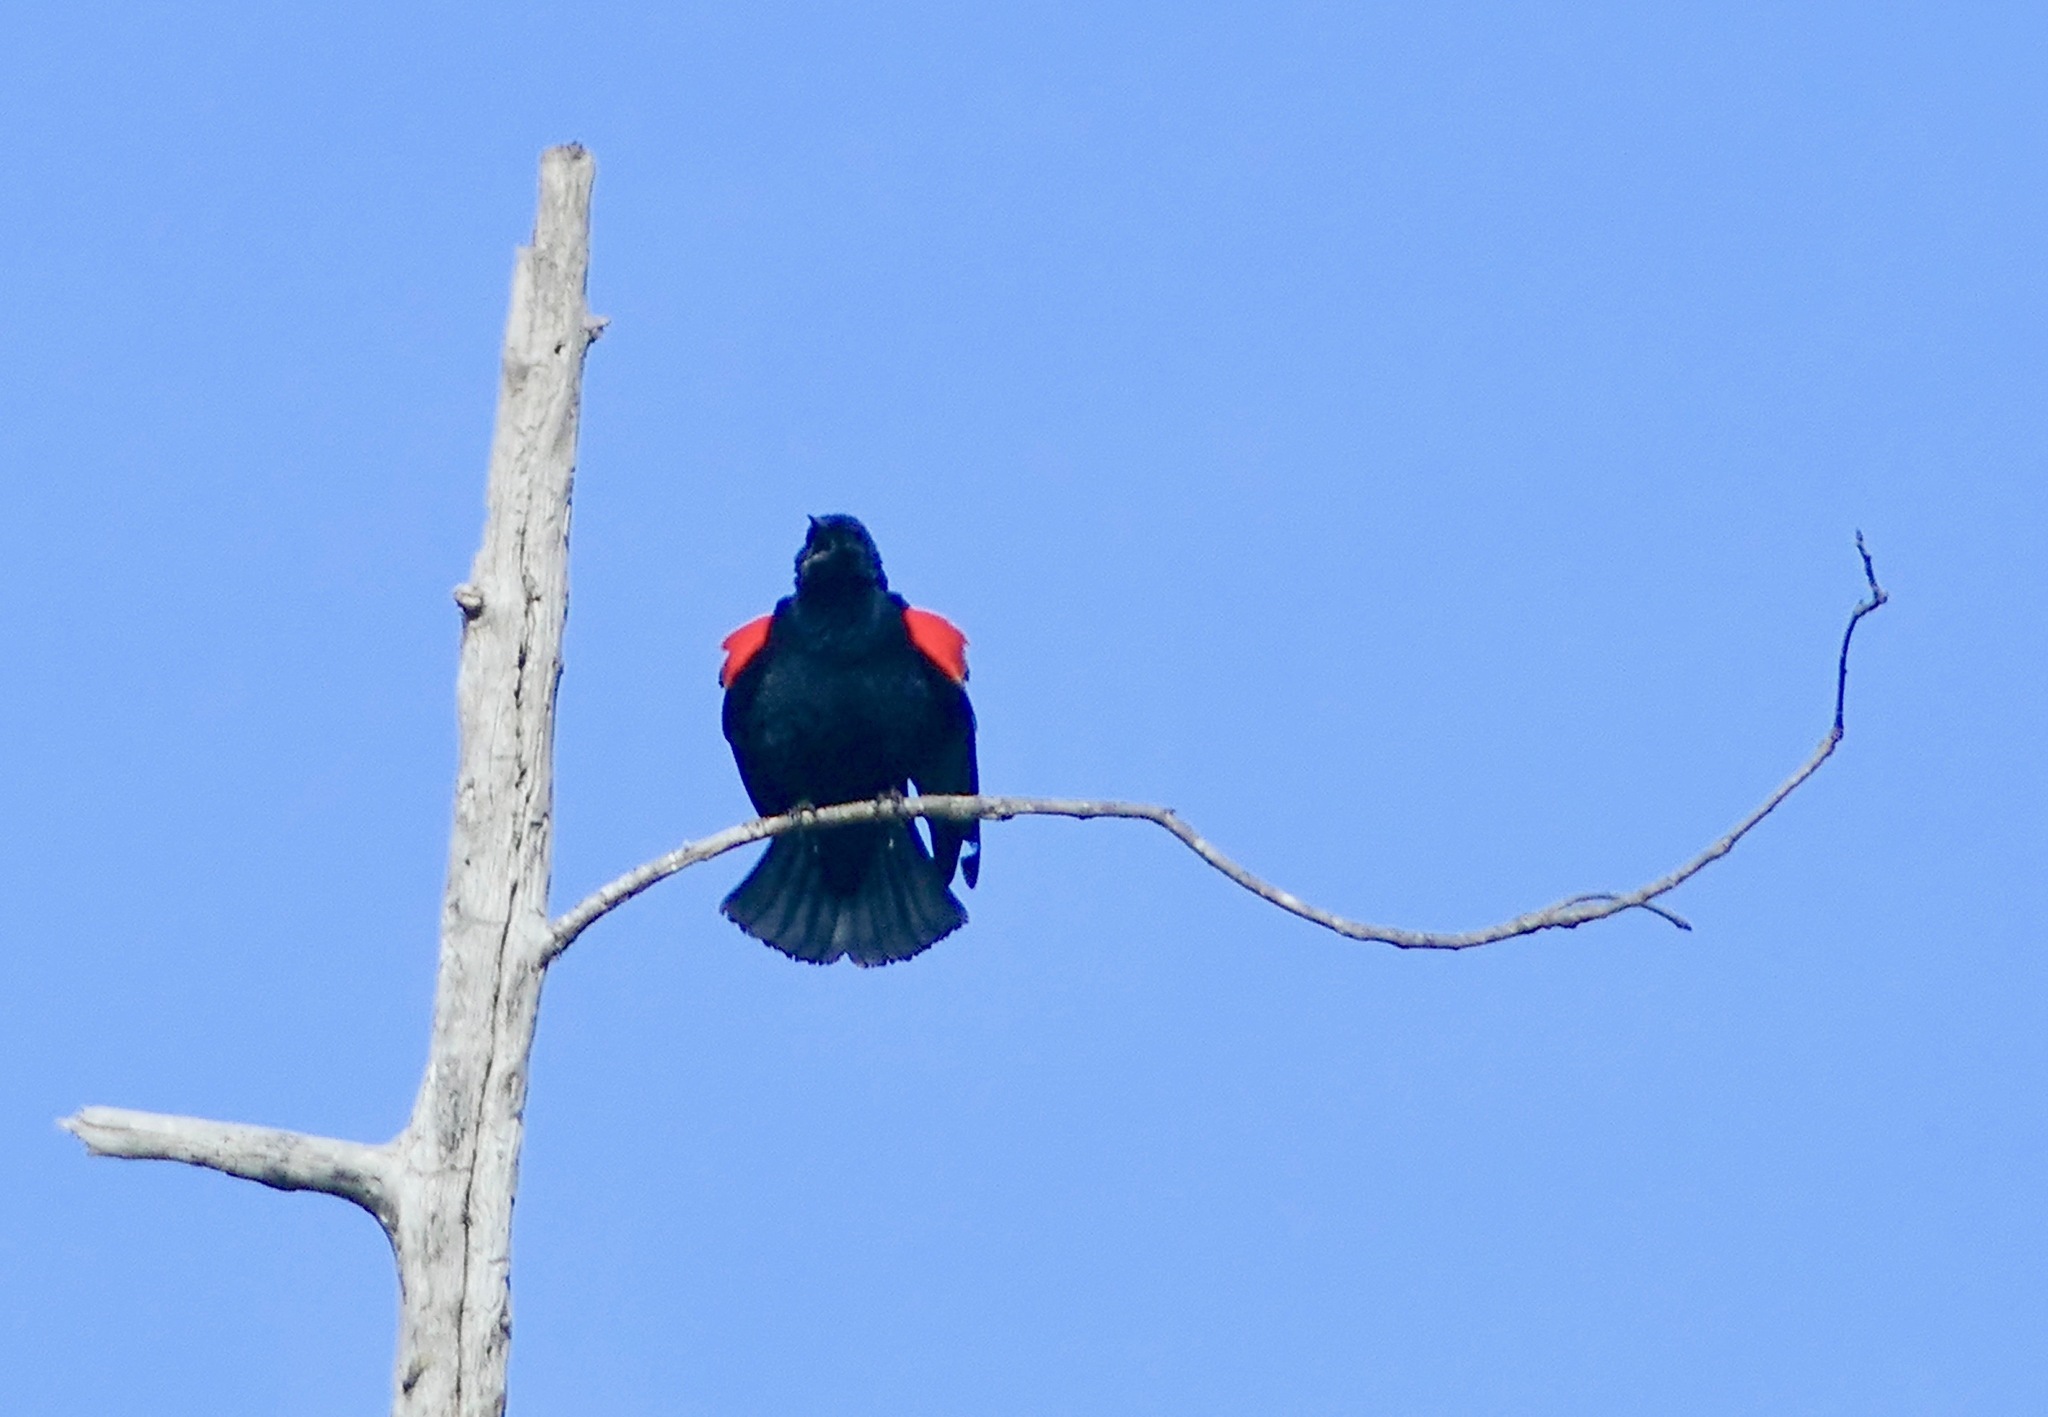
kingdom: Animalia
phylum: Chordata
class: Aves
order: Passeriformes
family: Icteridae
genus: Agelaius
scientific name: Agelaius phoeniceus
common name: Red-winged blackbird
